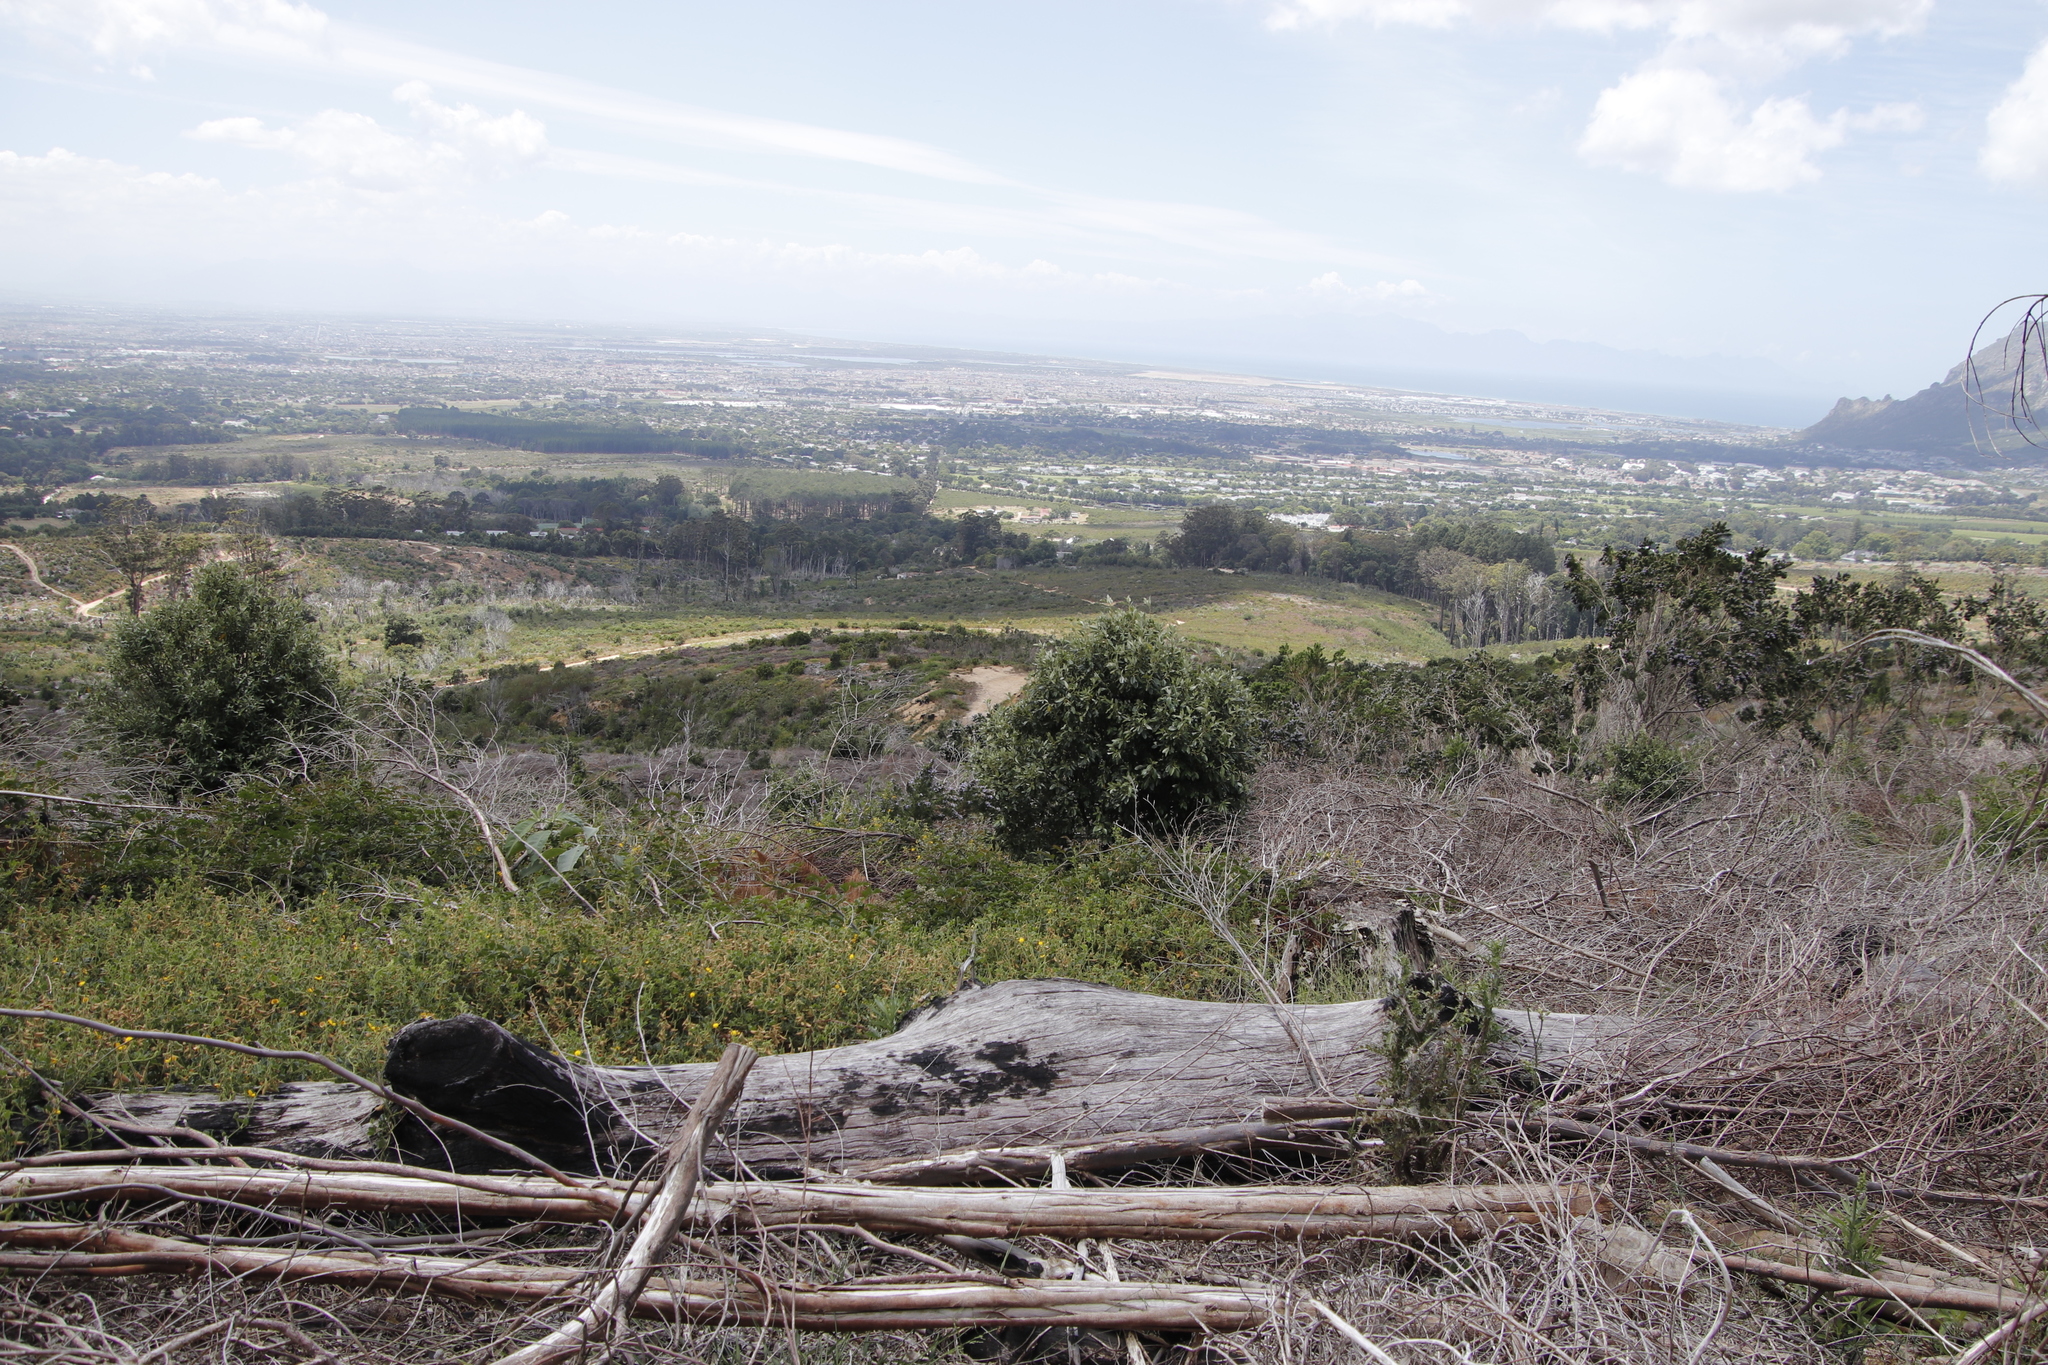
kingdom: Plantae
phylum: Tracheophyta
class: Magnoliopsida
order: Fabales
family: Fabaceae
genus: Bolusafra
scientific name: Bolusafra bituminosa
